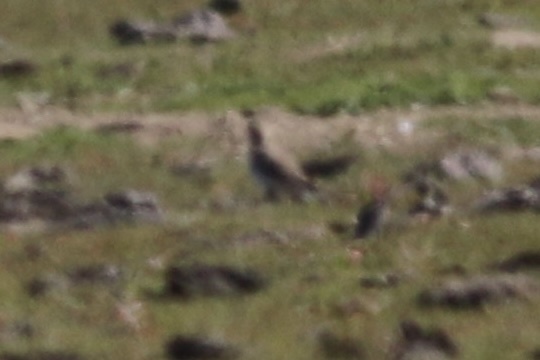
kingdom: Animalia
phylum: Chordata
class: Aves
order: Charadriiformes
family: Charadriidae
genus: Anarhynchus
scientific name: Anarhynchus
